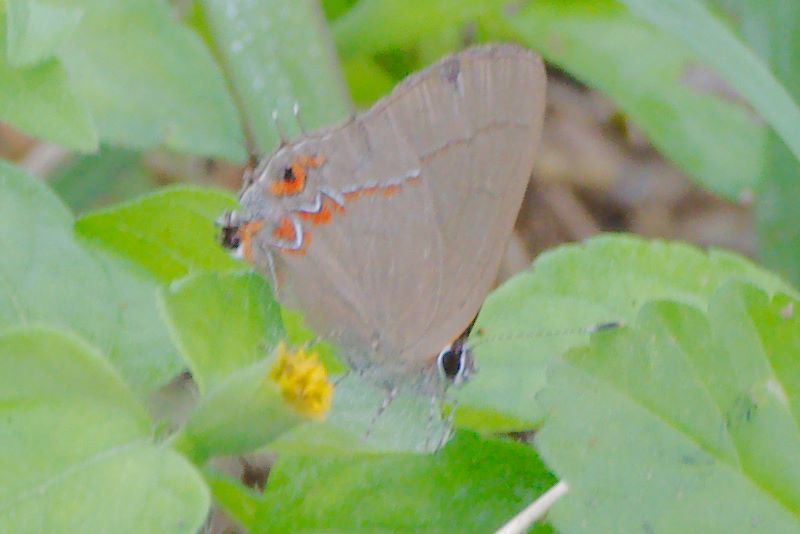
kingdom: Animalia
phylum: Arthropoda
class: Insecta
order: Lepidoptera
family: Lycaenidae
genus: Calycopis
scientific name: Calycopis isobeon
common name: Dusky-blue groundstreak
